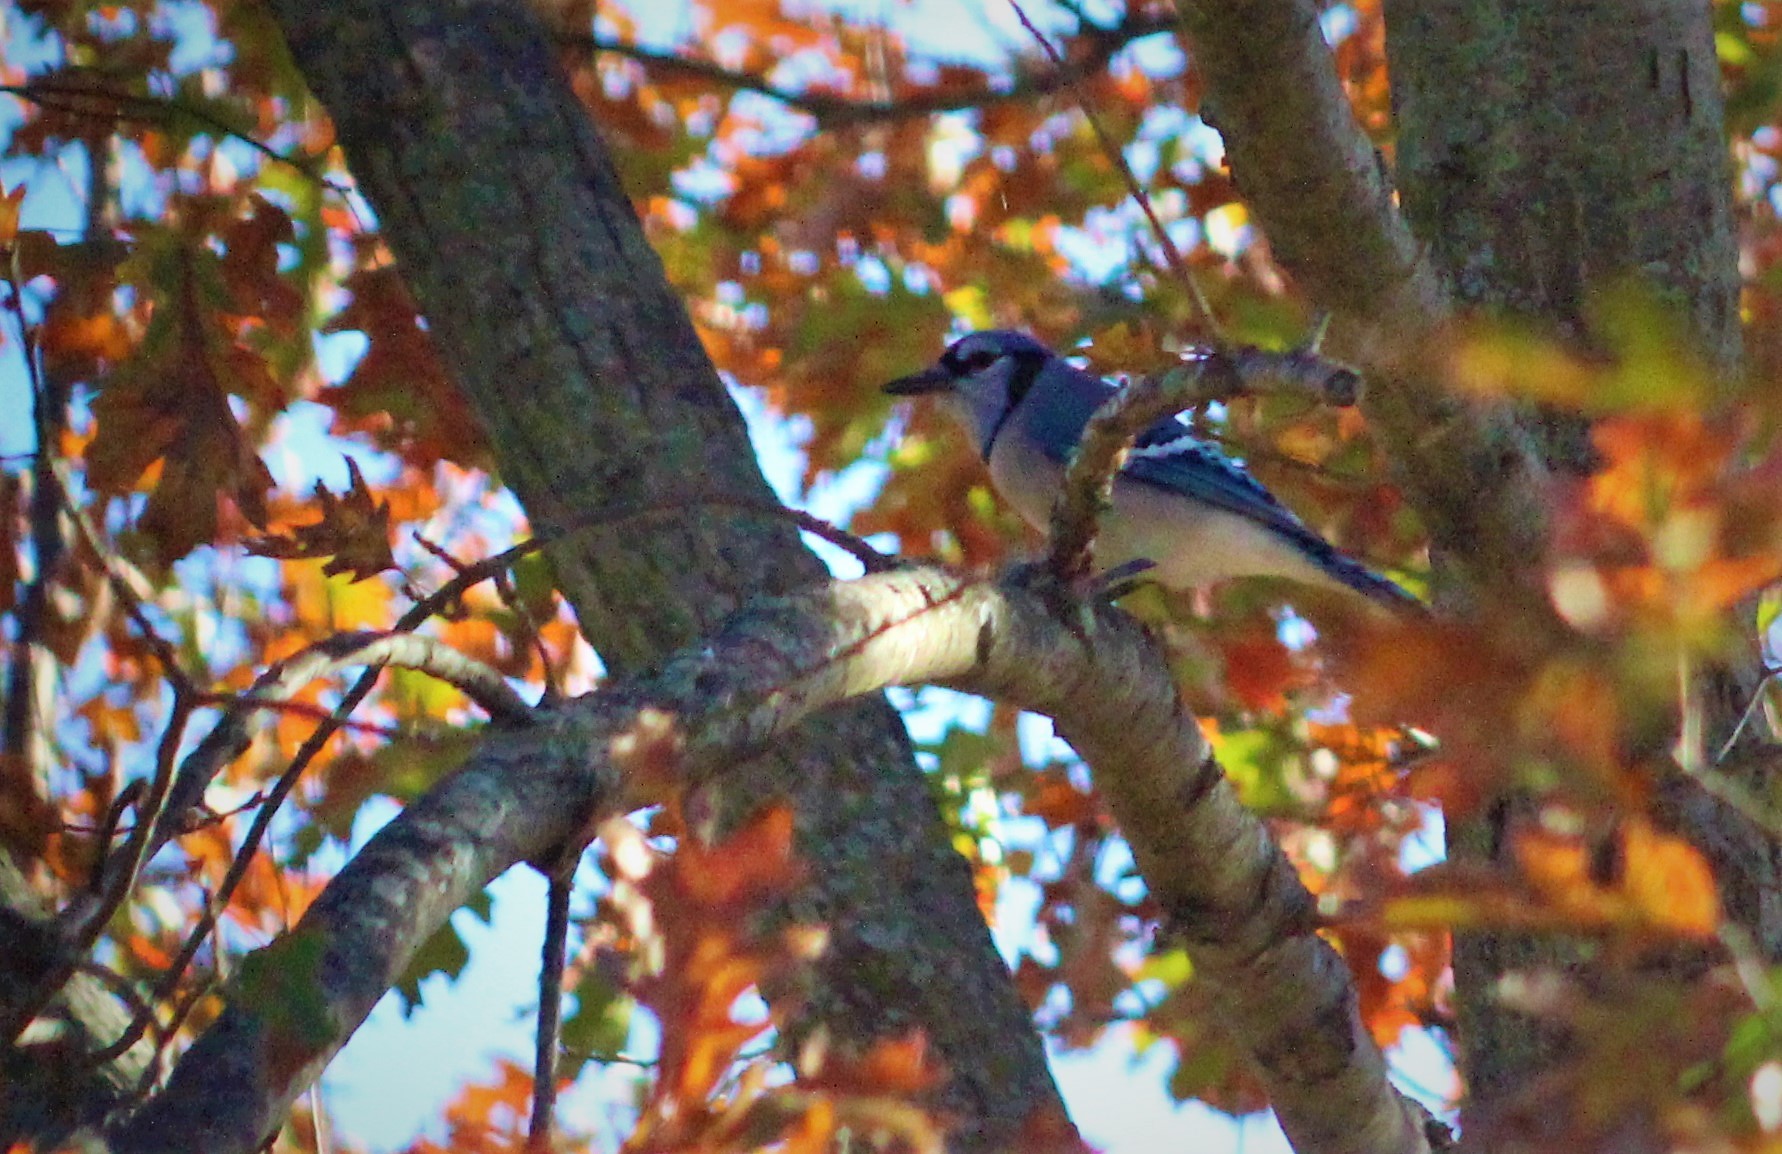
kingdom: Animalia
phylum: Chordata
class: Aves
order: Passeriformes
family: Corvidae
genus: Cyanocitta
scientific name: Cyanocitta cristata
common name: Blue jay
